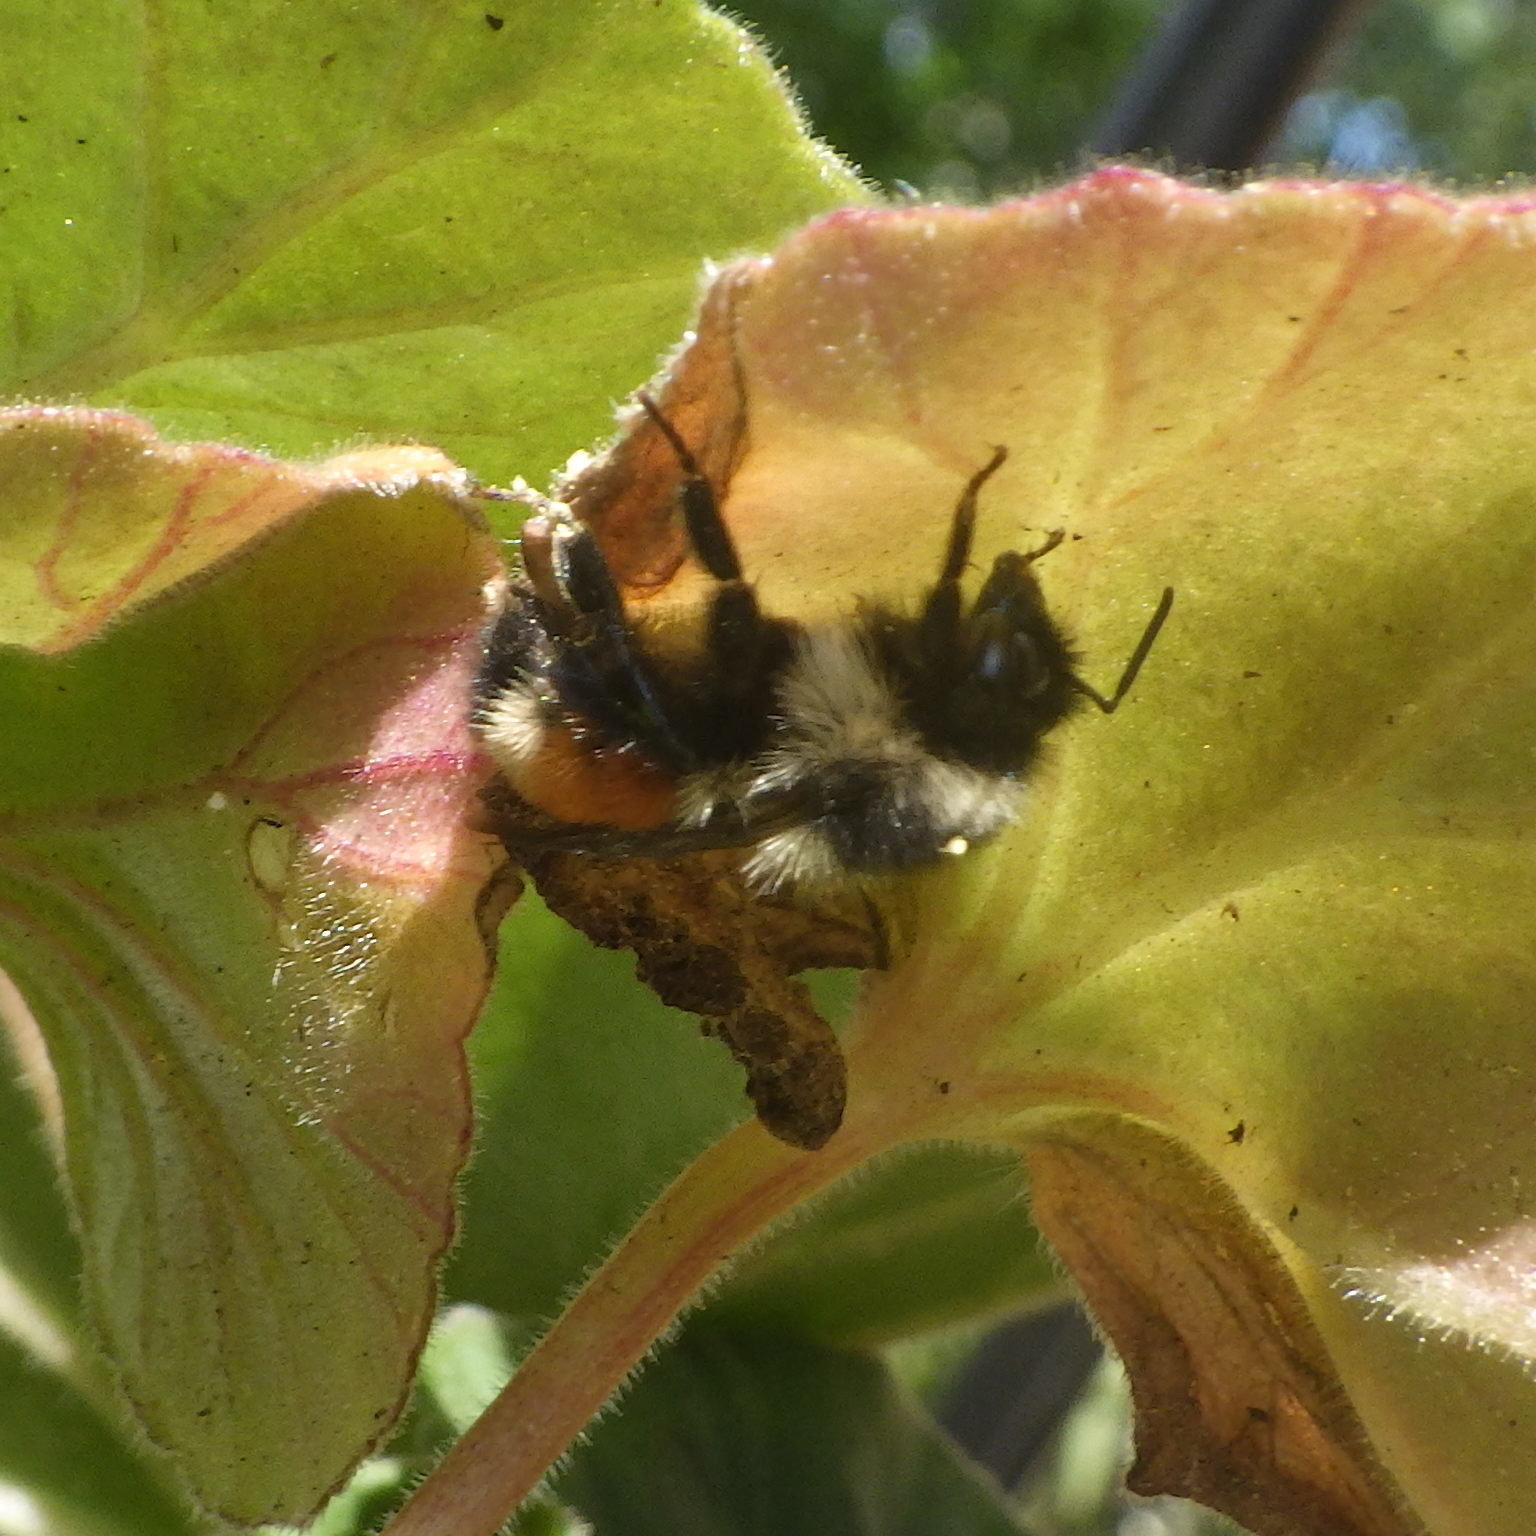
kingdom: Animalia
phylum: Arthropoda
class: Insecta
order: Hymenoptera
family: Apidae
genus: Bombus
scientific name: Bombus ternarius
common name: Tri-colored bumble bee
